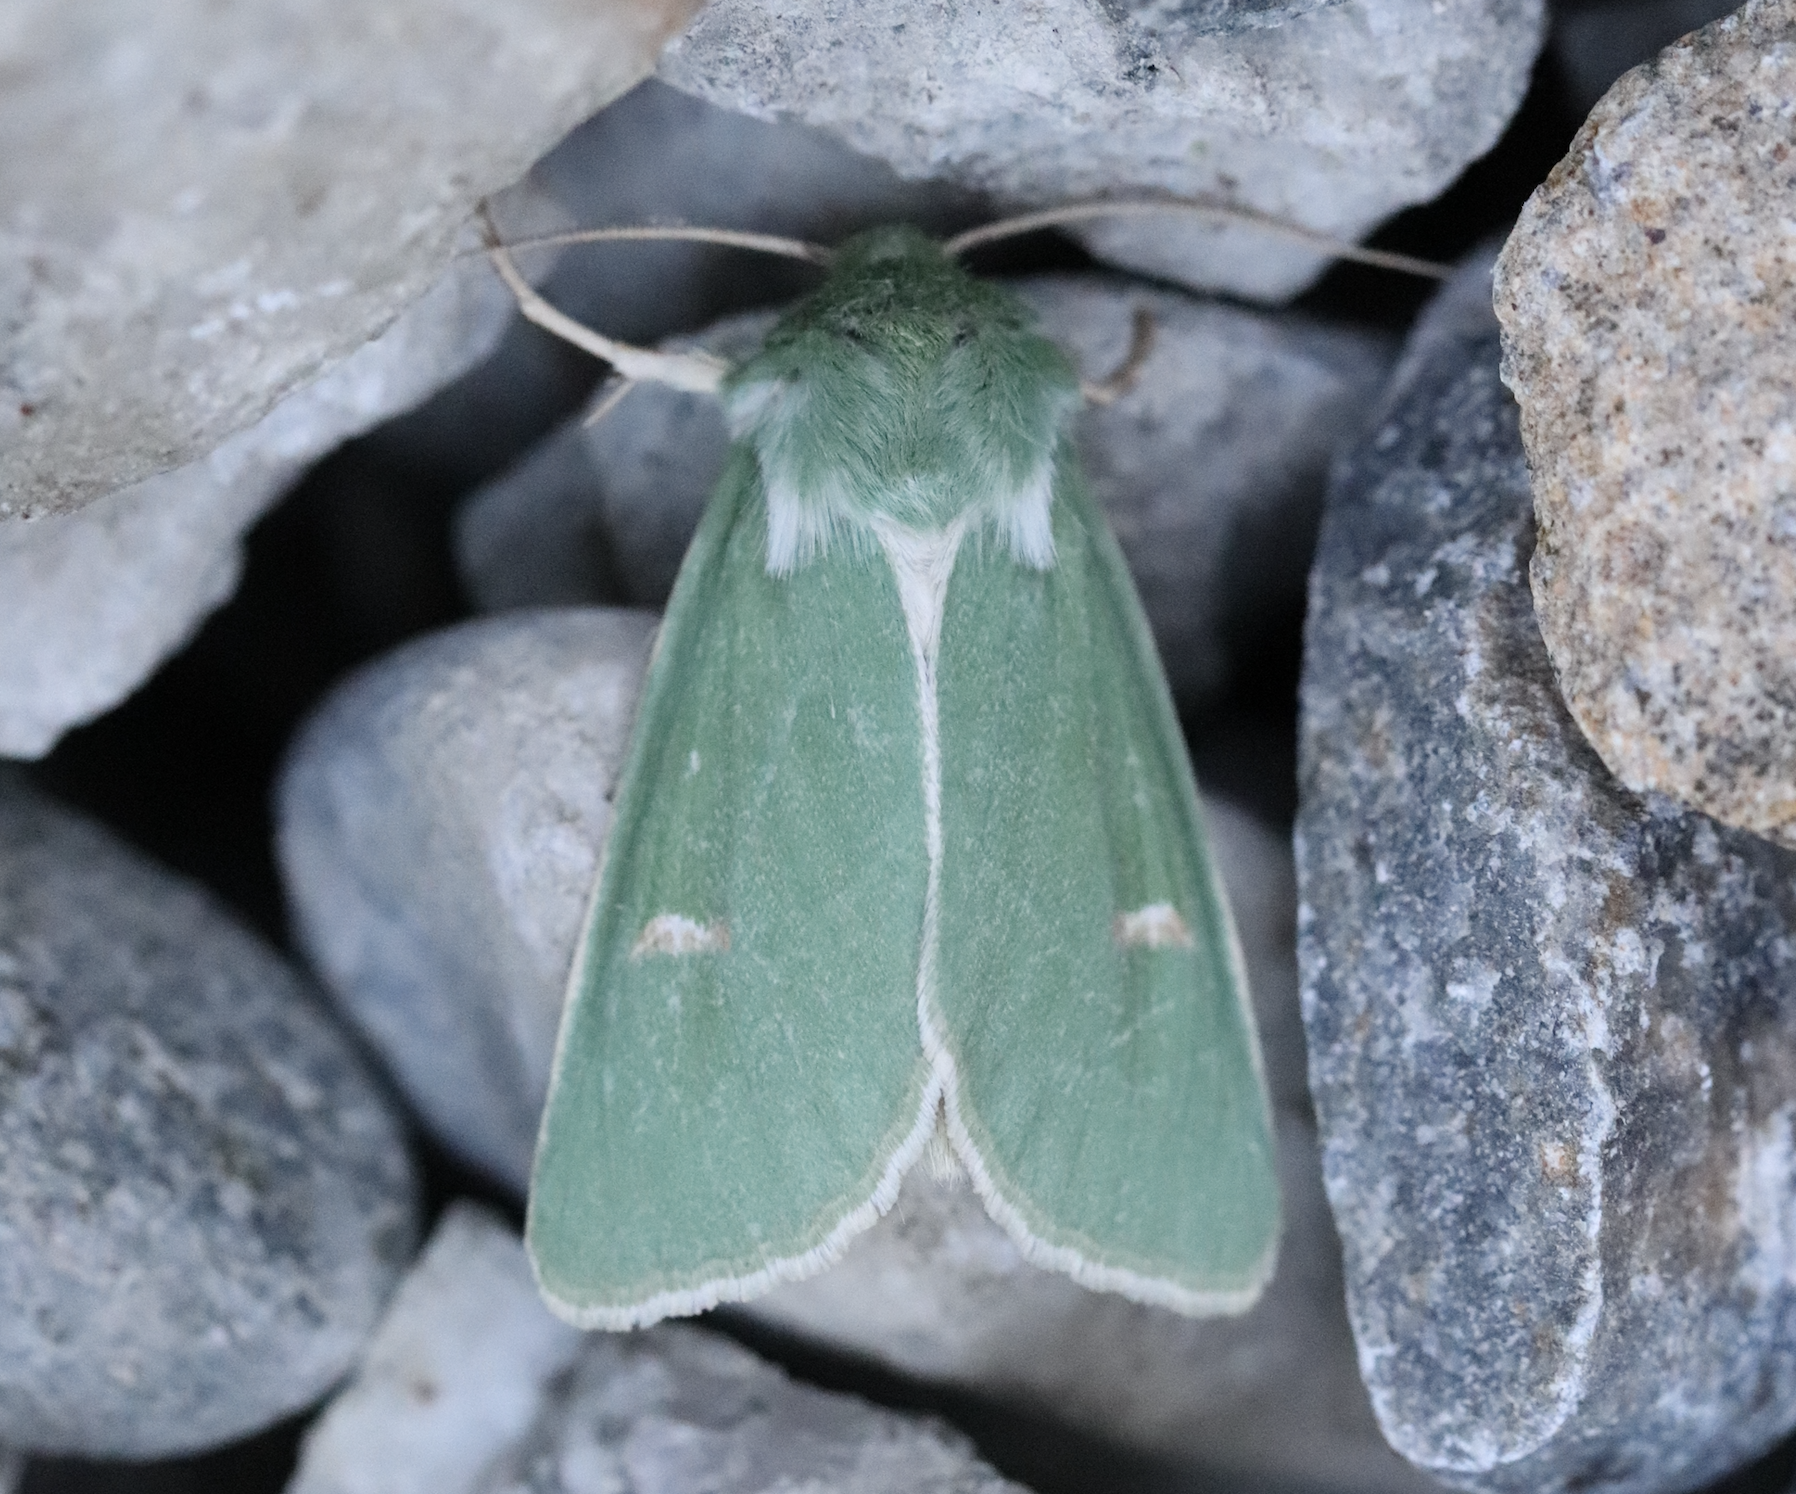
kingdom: Animalia
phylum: Arthropoda
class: Insecta
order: Lepidoptera
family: Noctuidae
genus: Calamia
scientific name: Calamia tridens
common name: Burren green
